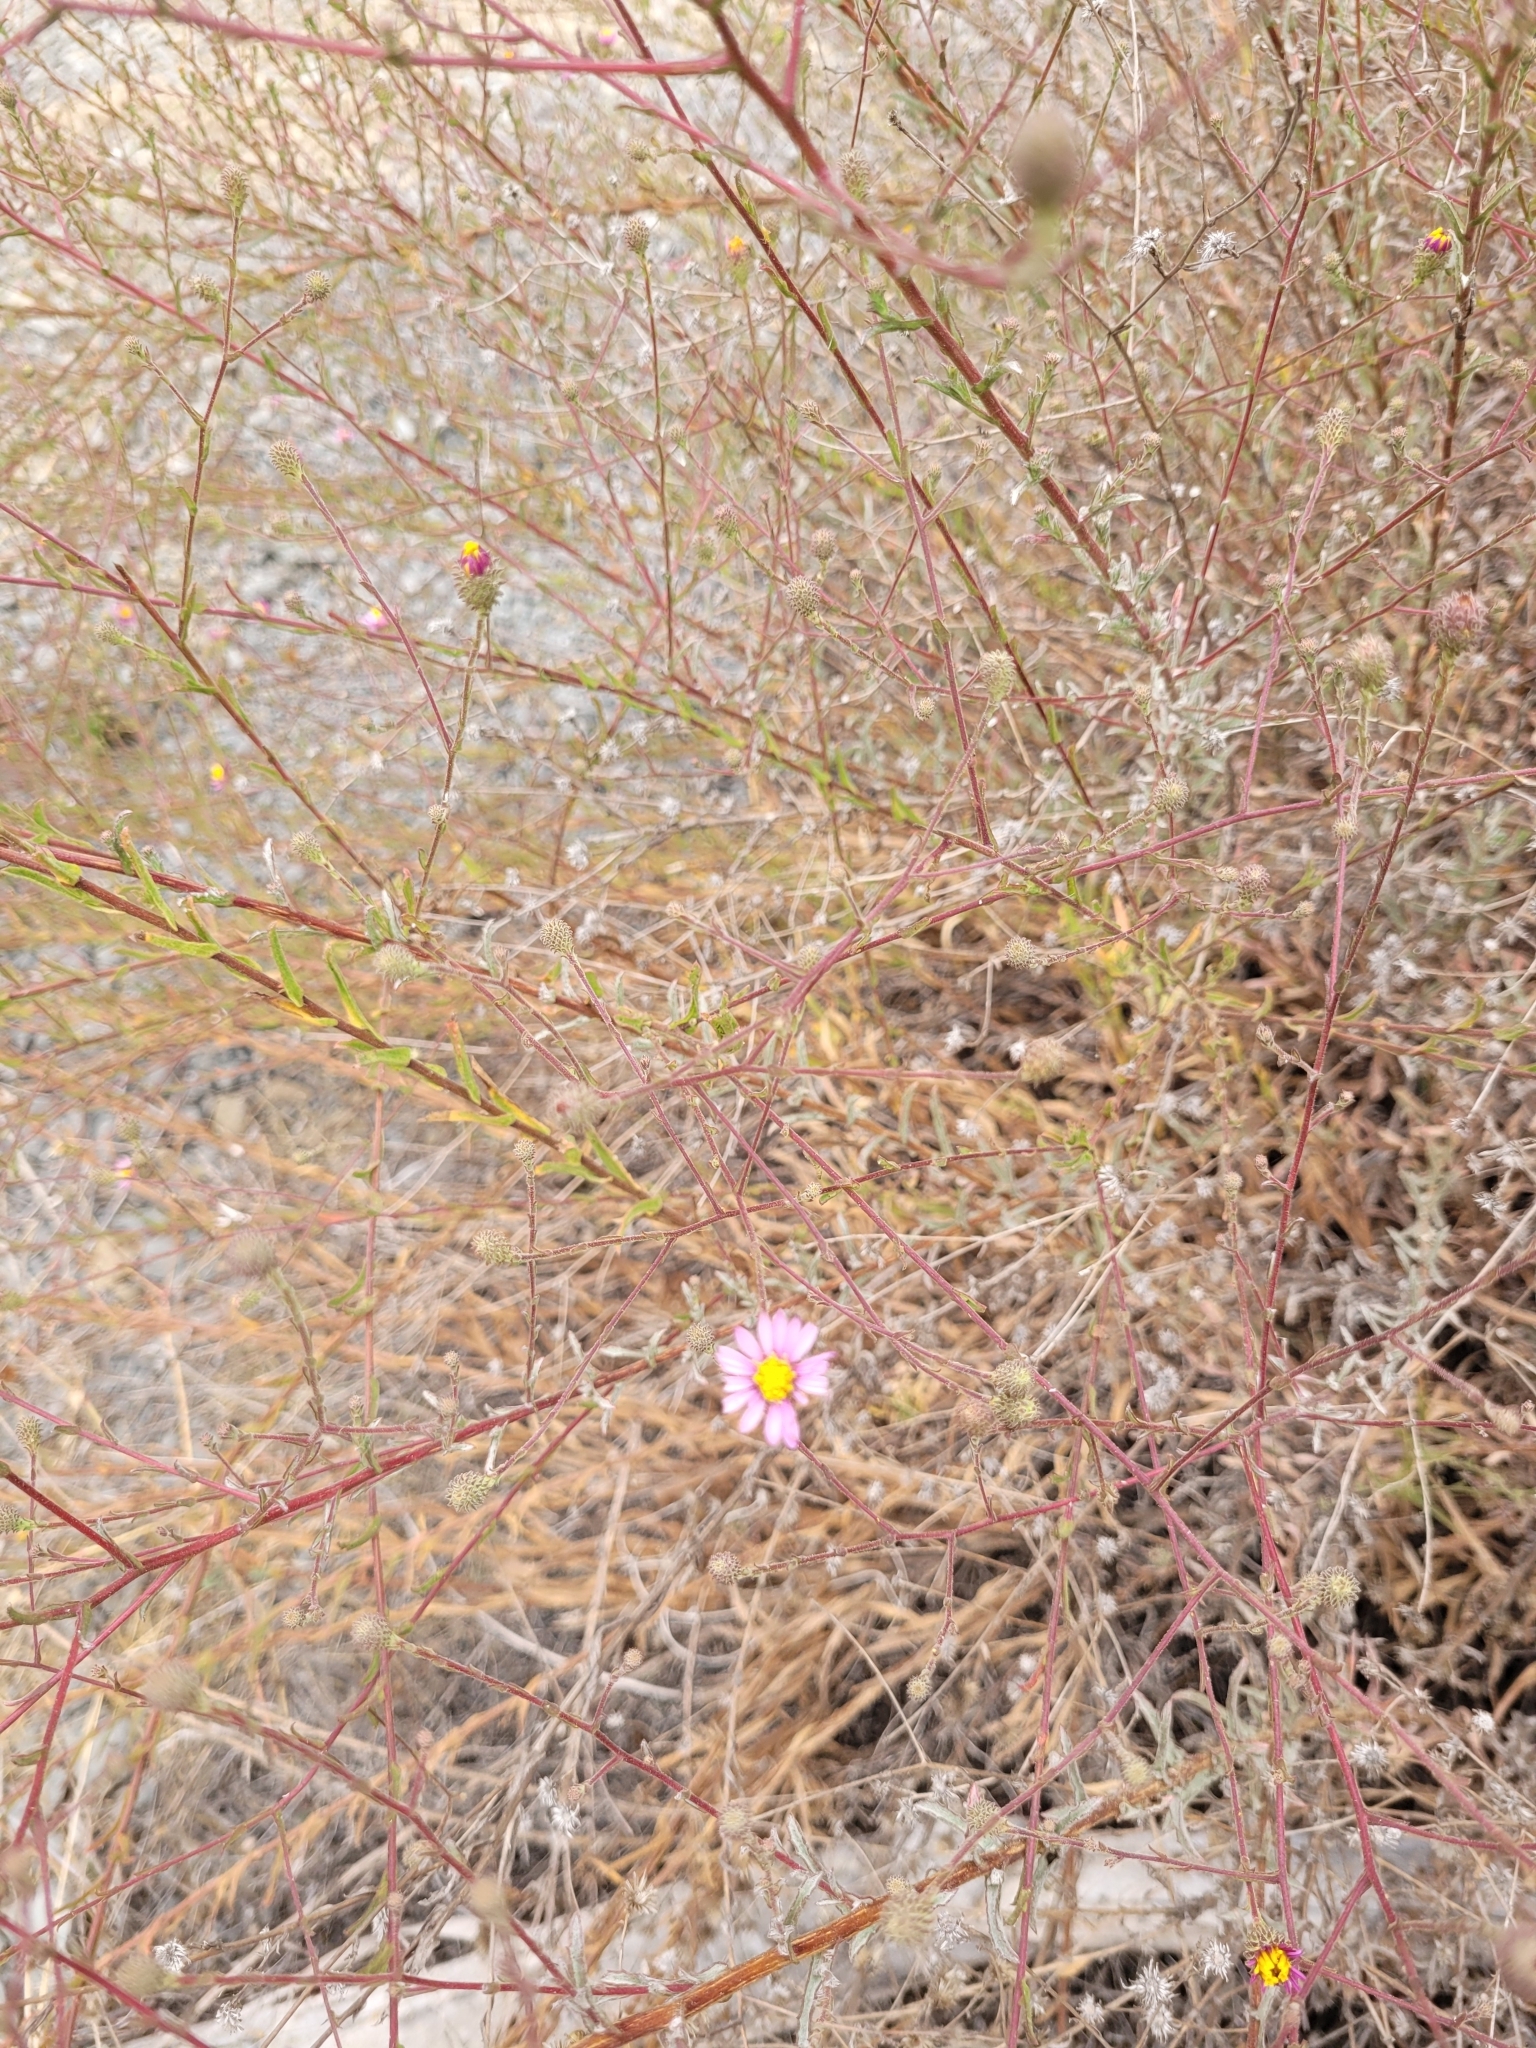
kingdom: Plantae
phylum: Tracheophyta
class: Magnoliopsida
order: Asterales
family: Asteraceae
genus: Corethrogyne
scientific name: Corethrogyne filaginifolia
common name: Sand-aster
